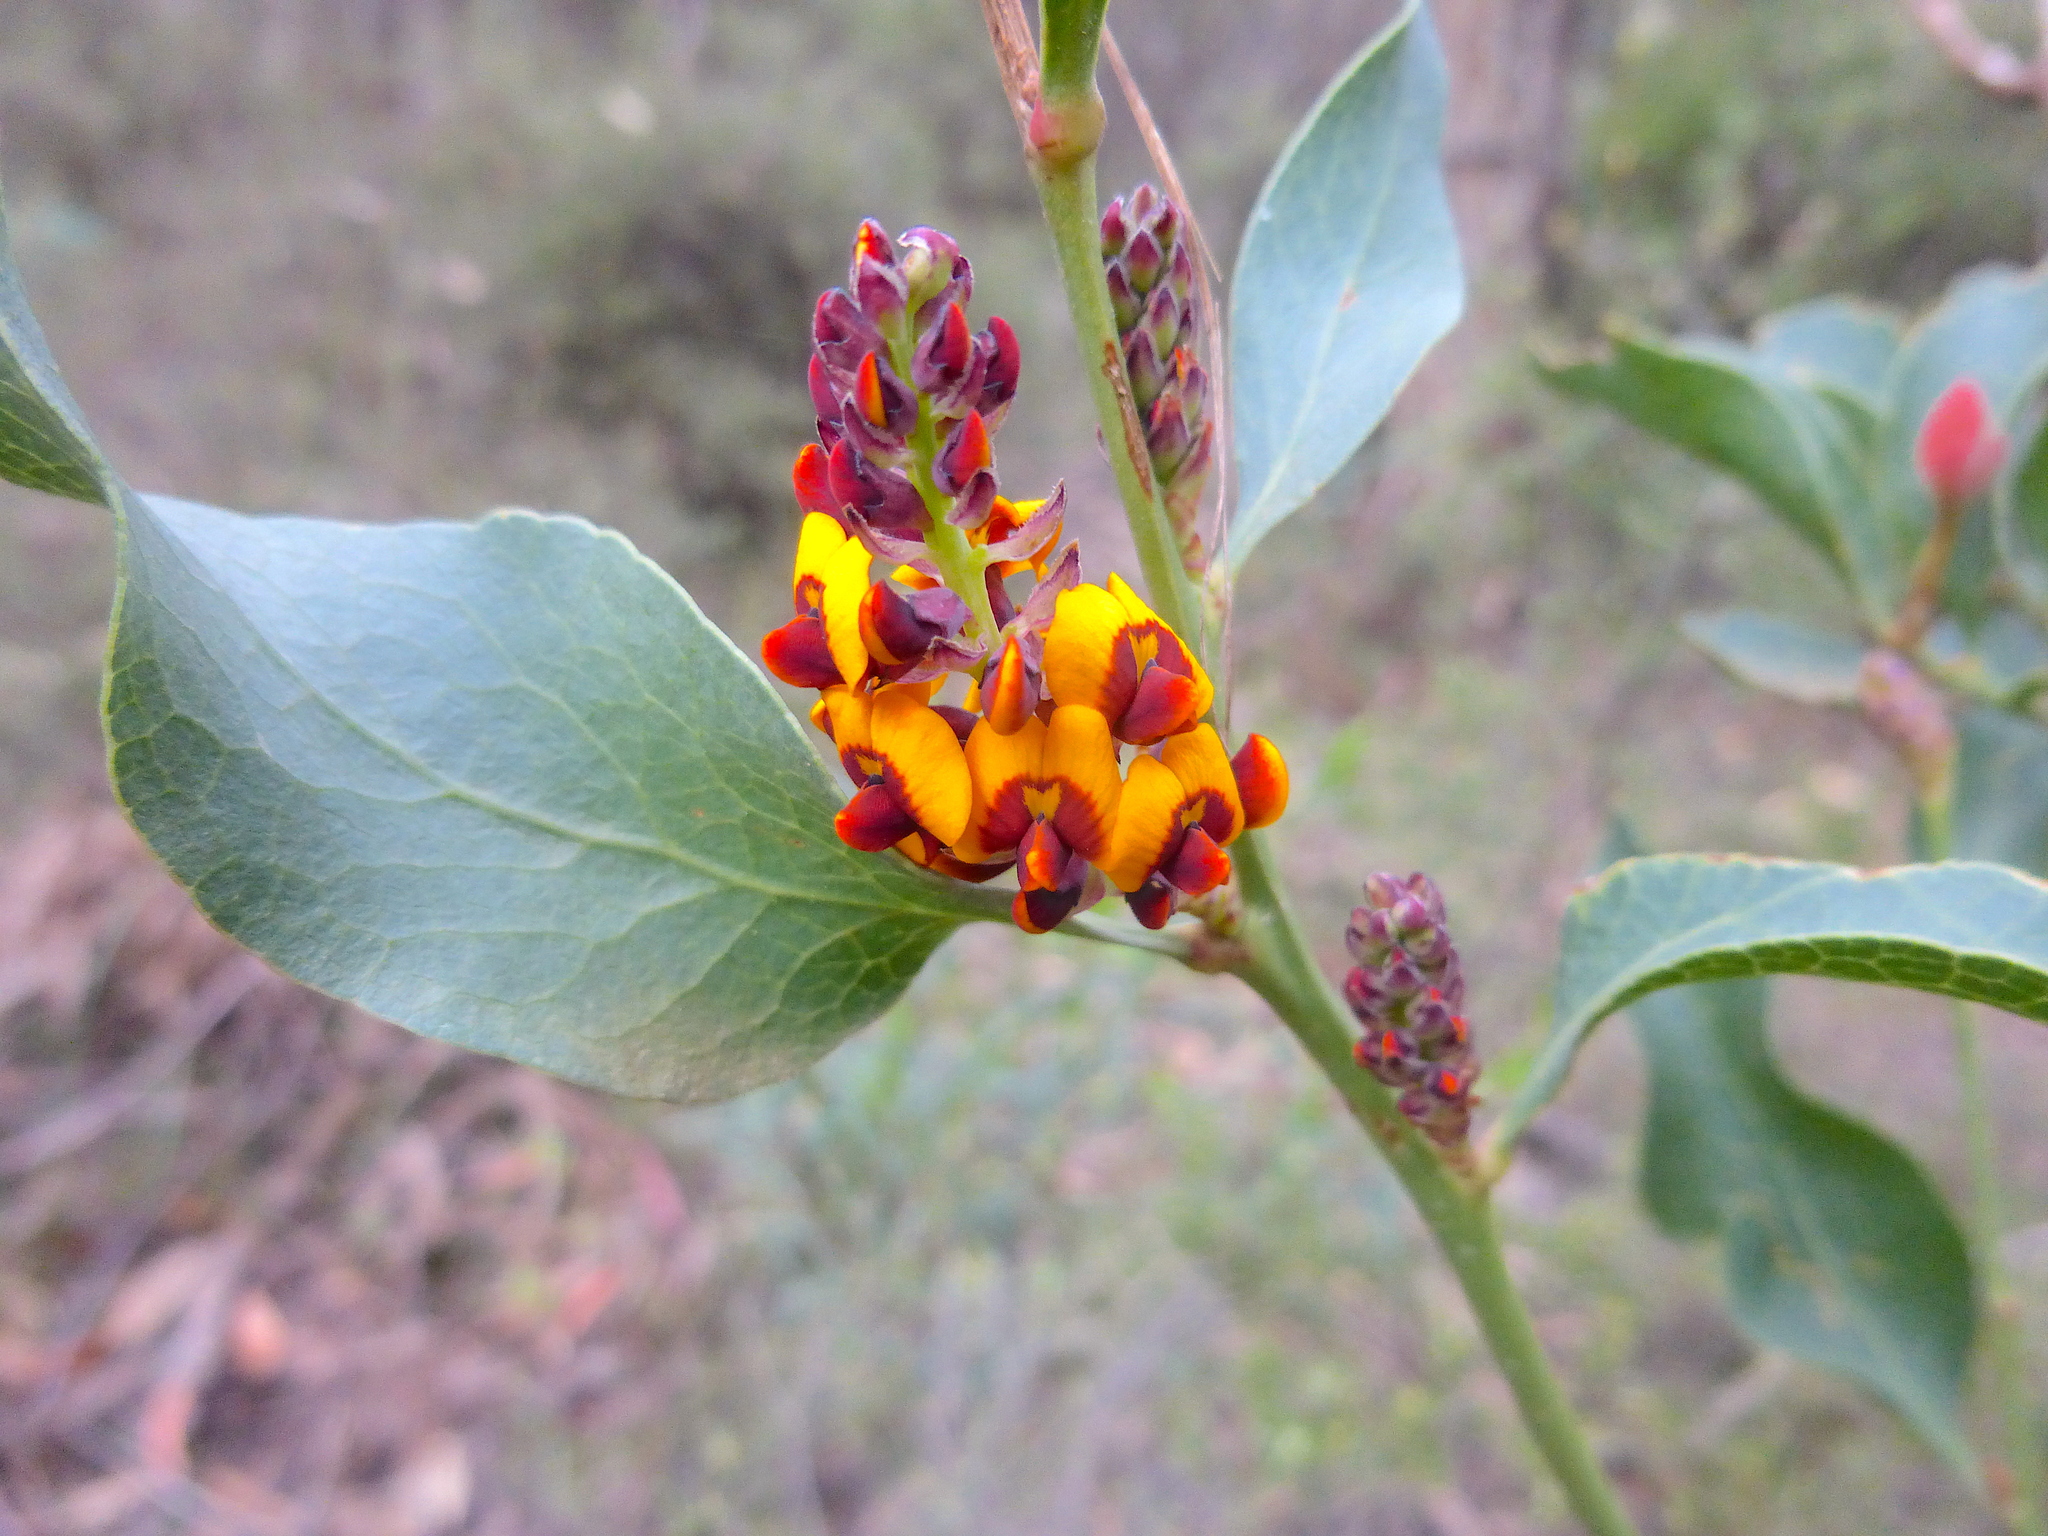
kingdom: Plantae
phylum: Tracheophyta
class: Magnoliopsida
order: Fabales
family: Fabaceae
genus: Daviesia
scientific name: Daviesia latifolia
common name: Hop bitter-pea
